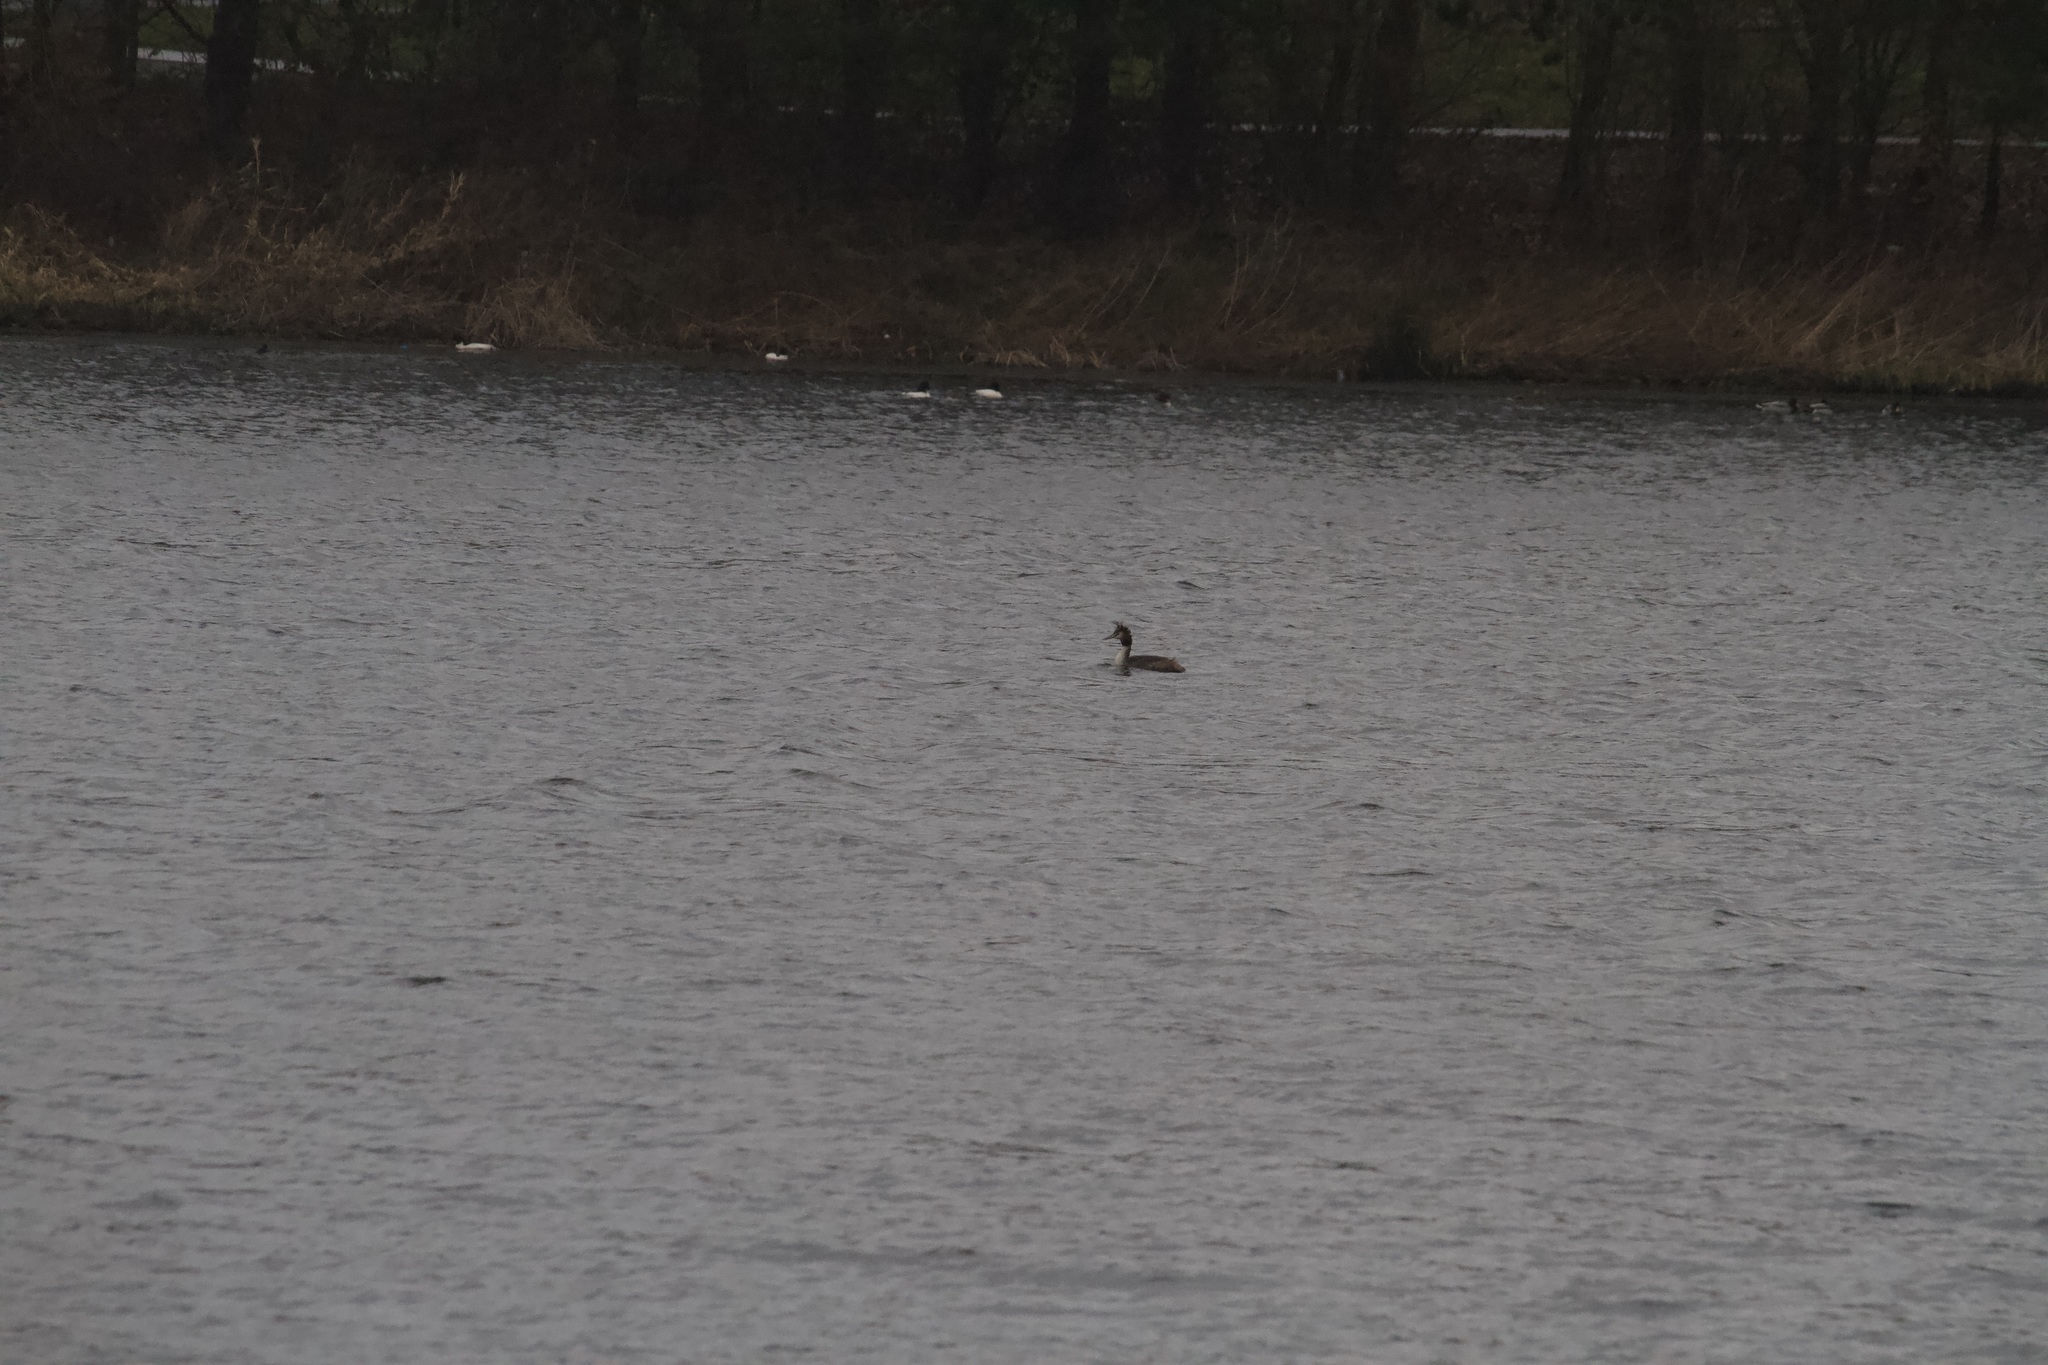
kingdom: Animalia
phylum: Chordata
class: Aves
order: Podicipediformes
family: Podicipedidae
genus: Podiceps
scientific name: Podiceps cristatus
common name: Great crested grebe
